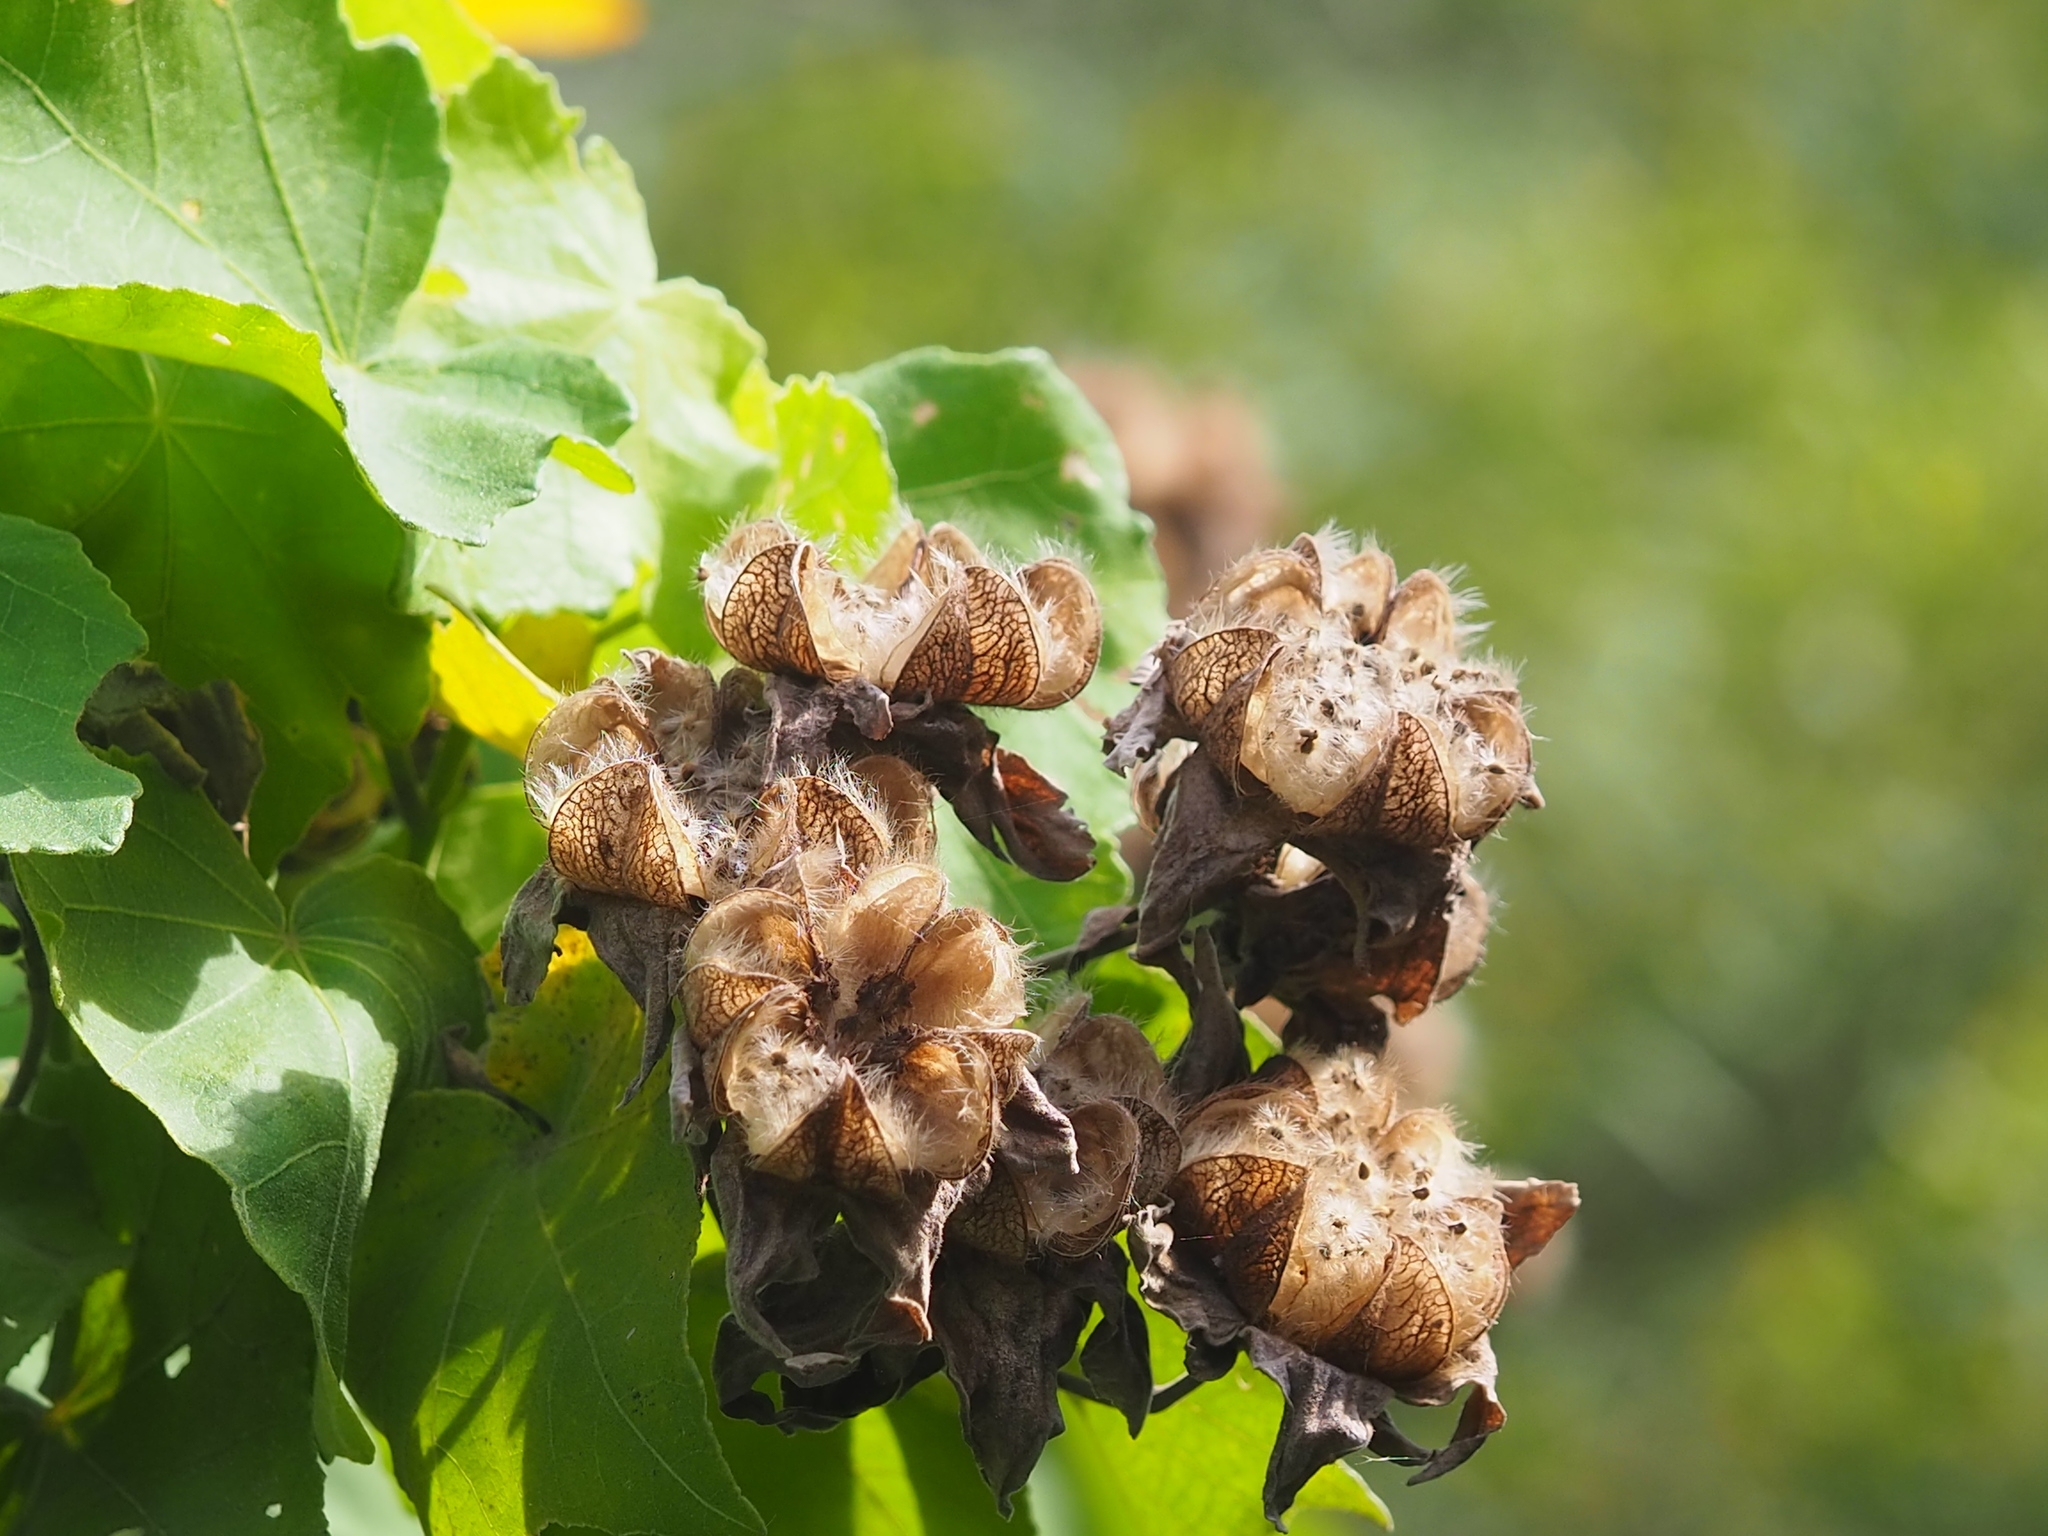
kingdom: Plantae
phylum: Tracheophyta
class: Magnoliopsida
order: Malvales
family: Malvaceae
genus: Hibiscus
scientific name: Hibiscus taiwanensis
